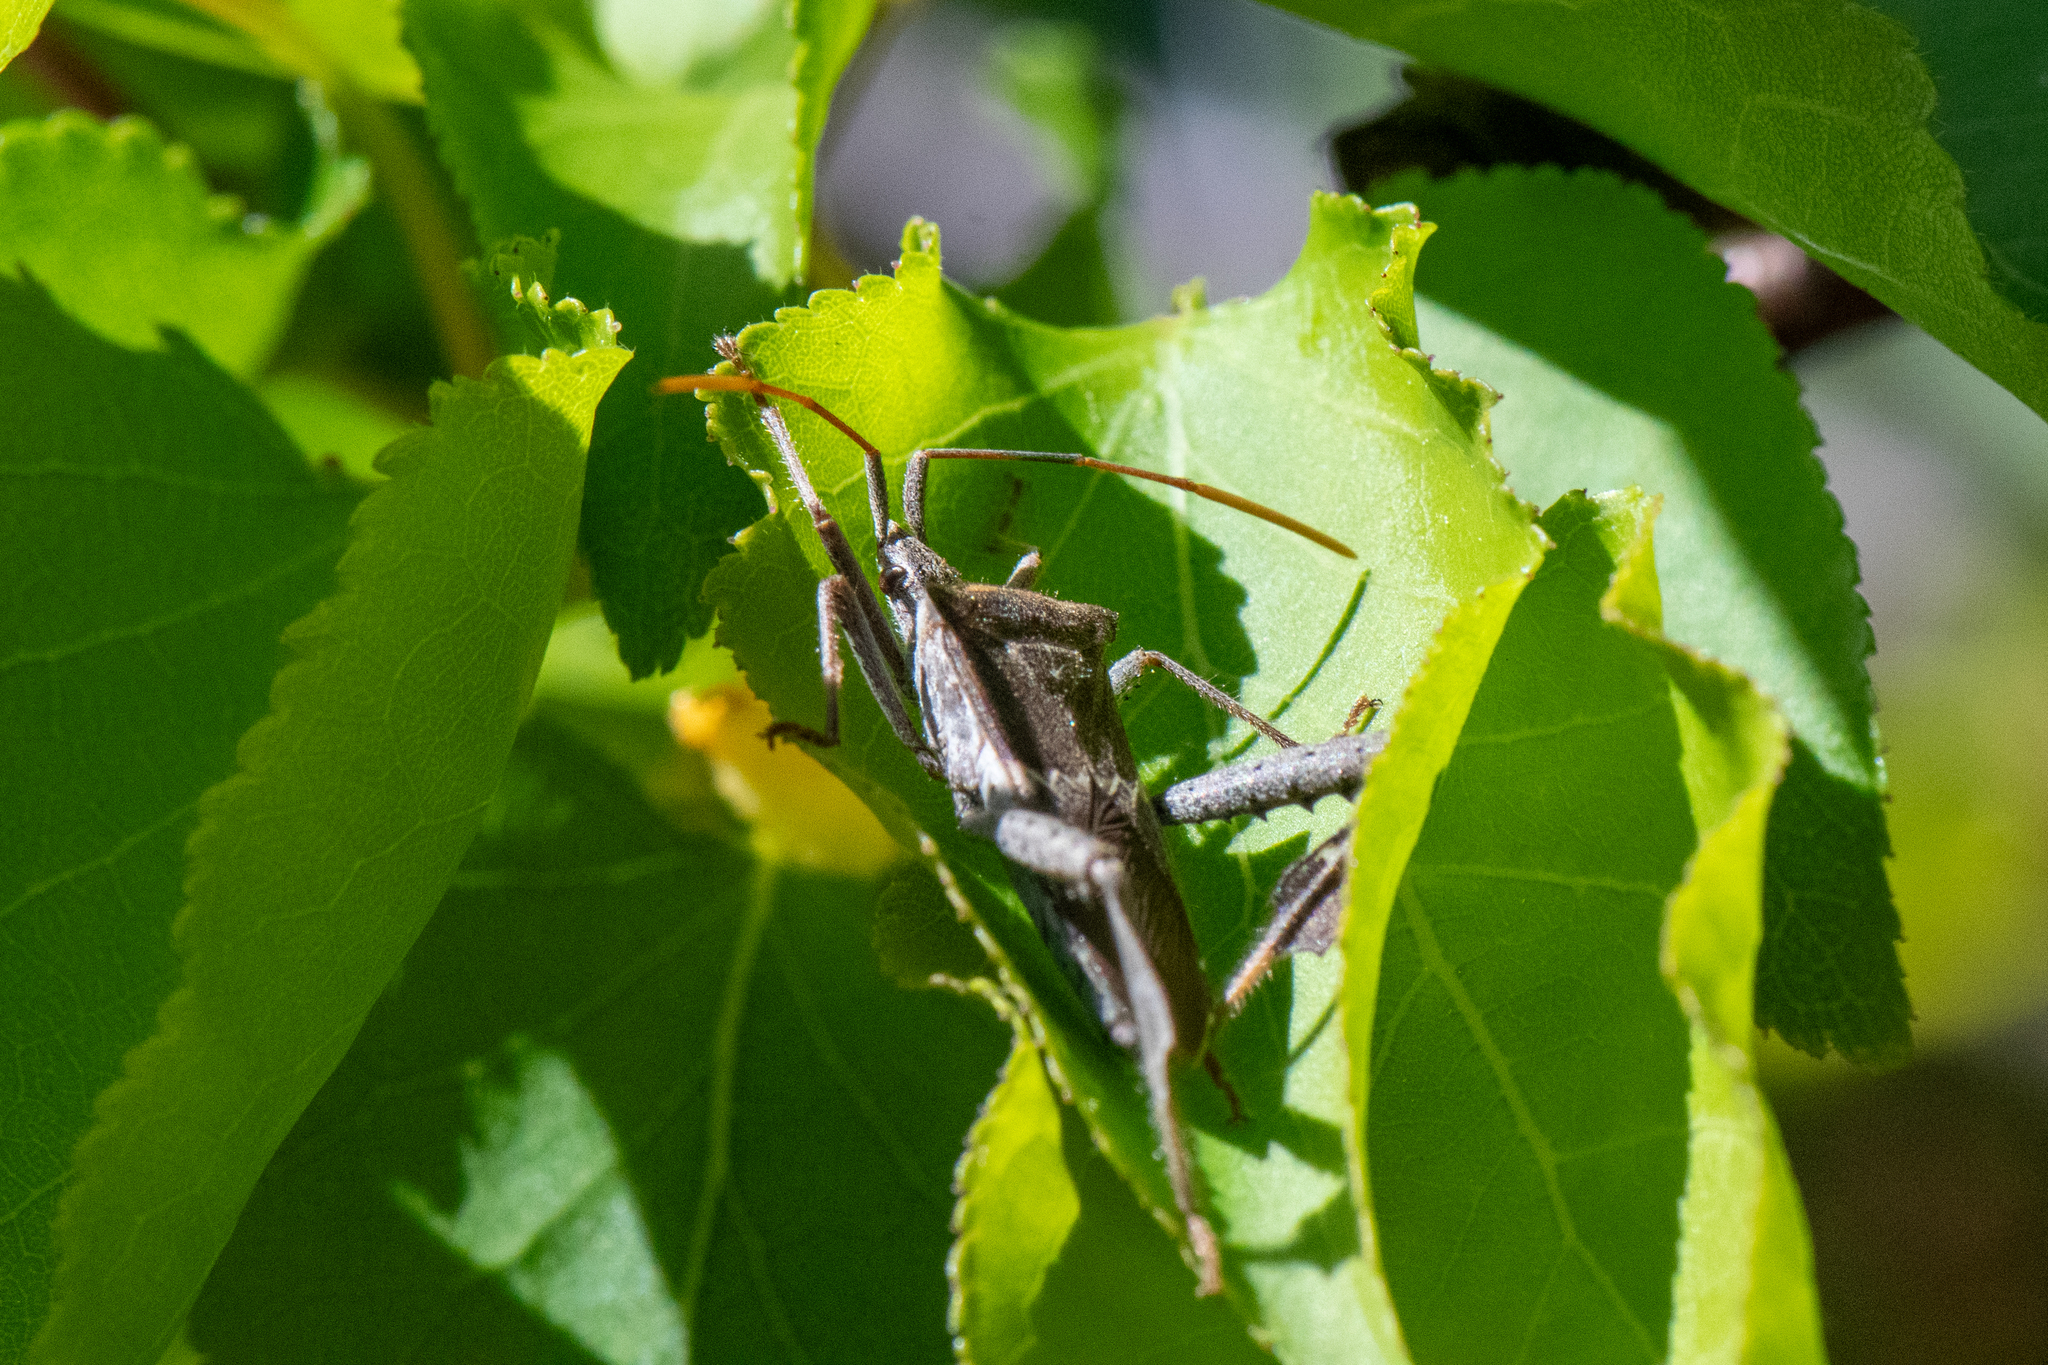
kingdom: Animalia
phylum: Arthropoda
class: Insecta
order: Hemiptera
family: Coreidae
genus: Leptoglossus
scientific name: Leptoglossus zonatus
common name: Large-legged bug
